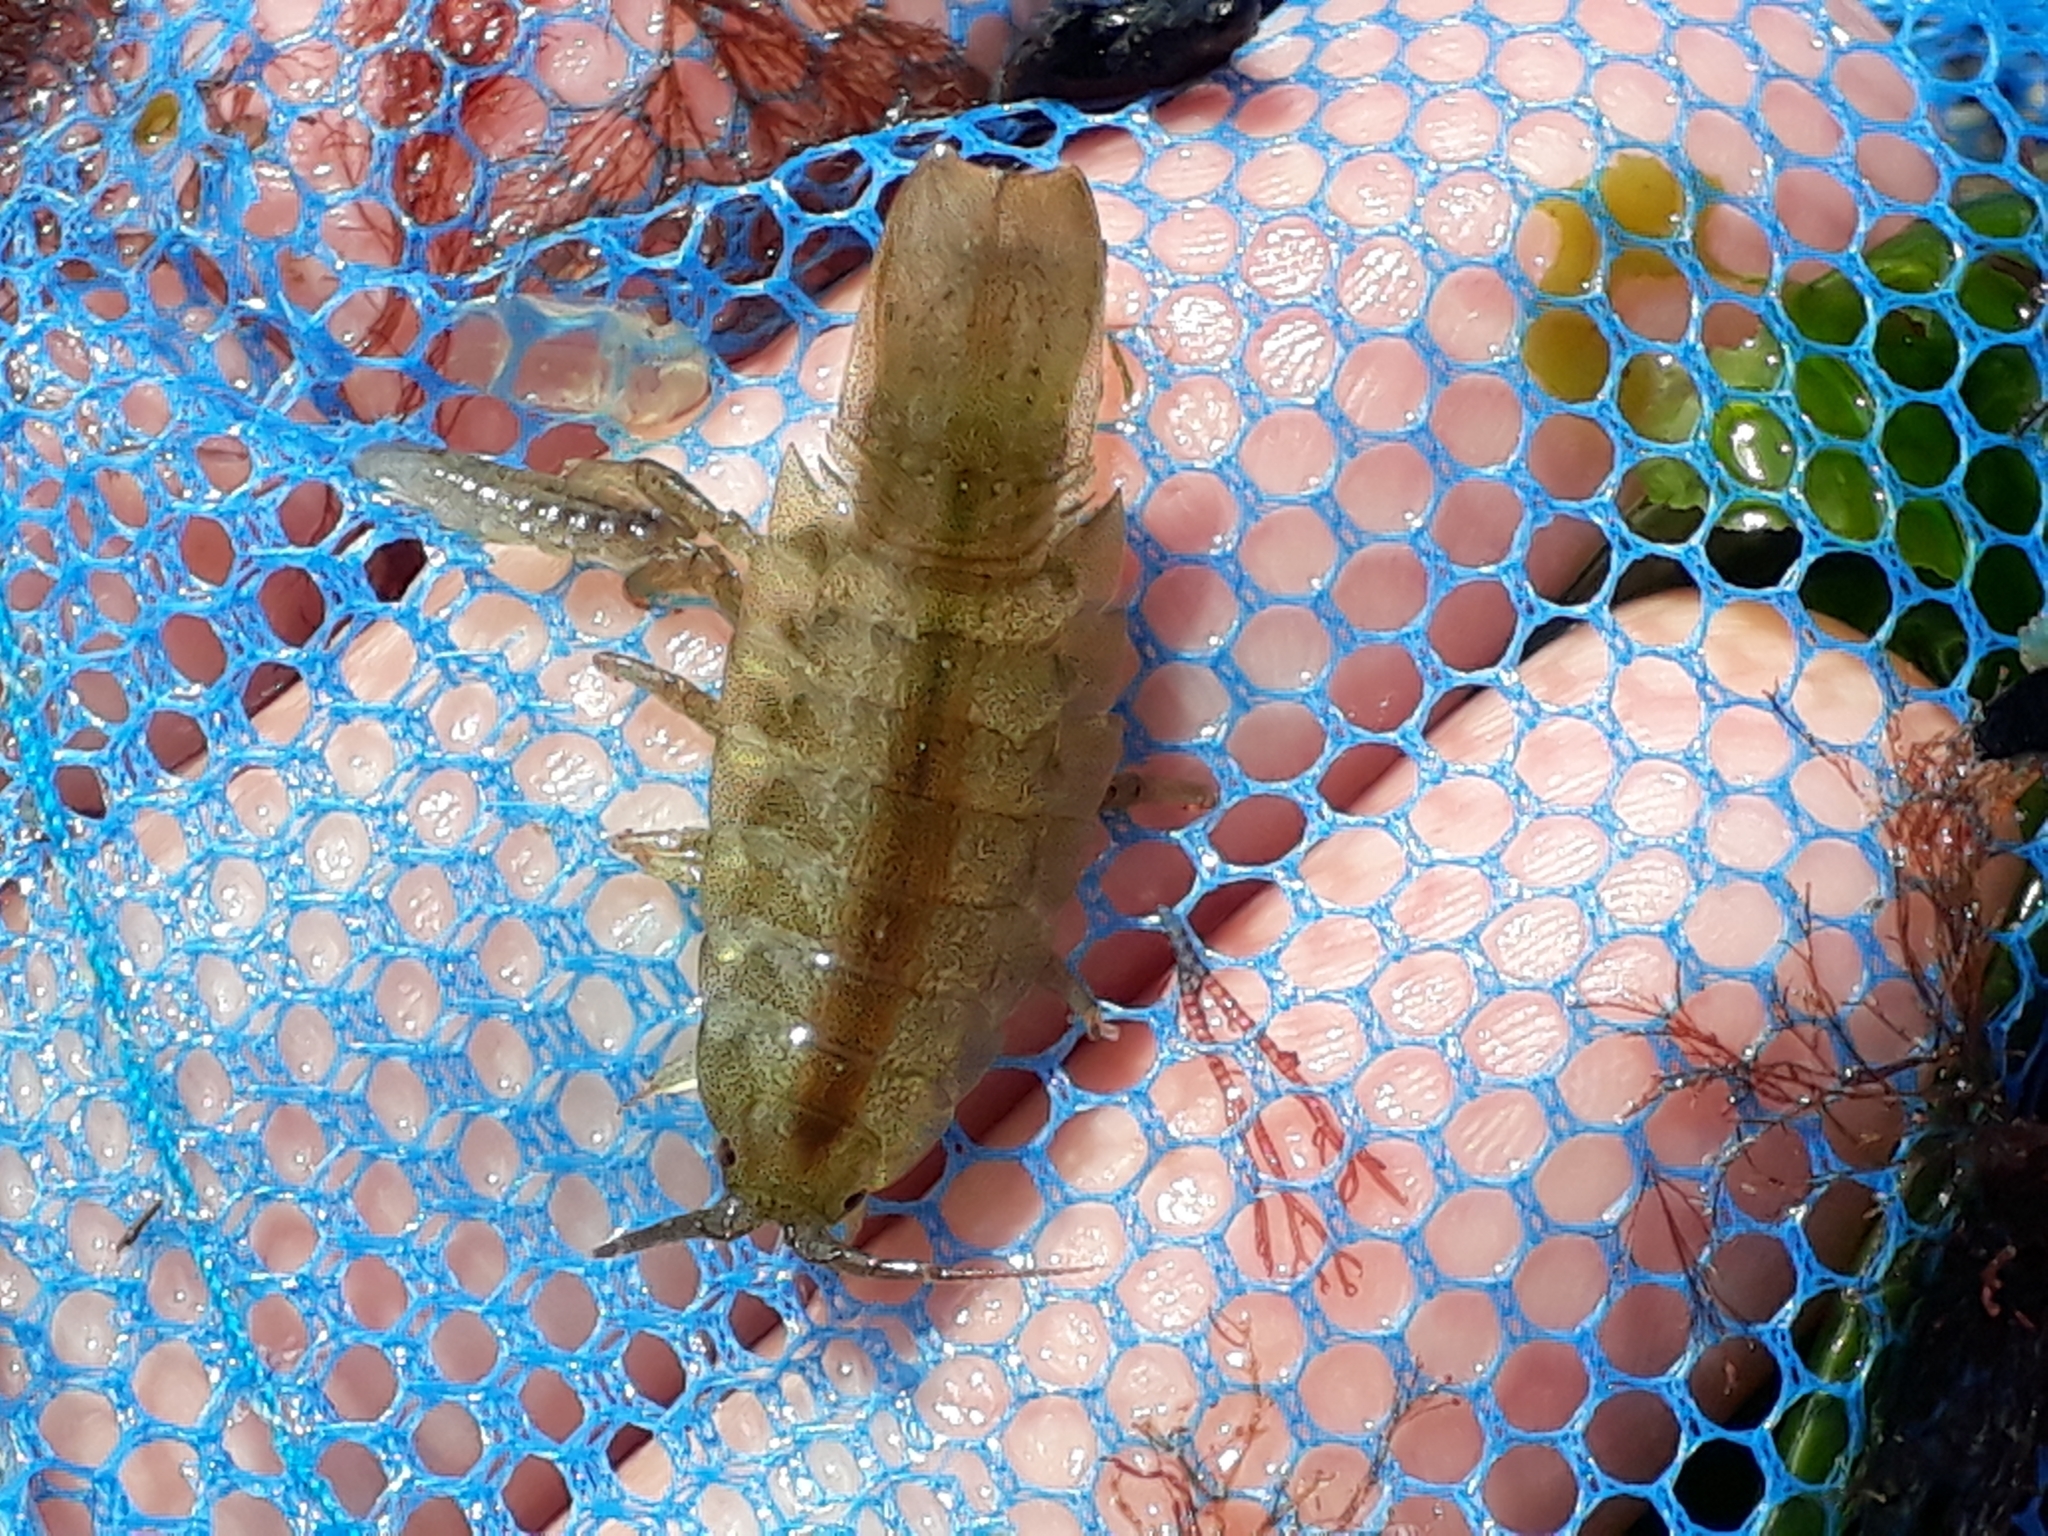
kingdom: Animalia
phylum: Arthropoda
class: Malacostraca
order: Isopoda
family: Idoteidae
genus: Idotea
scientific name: Idotea emarginata
